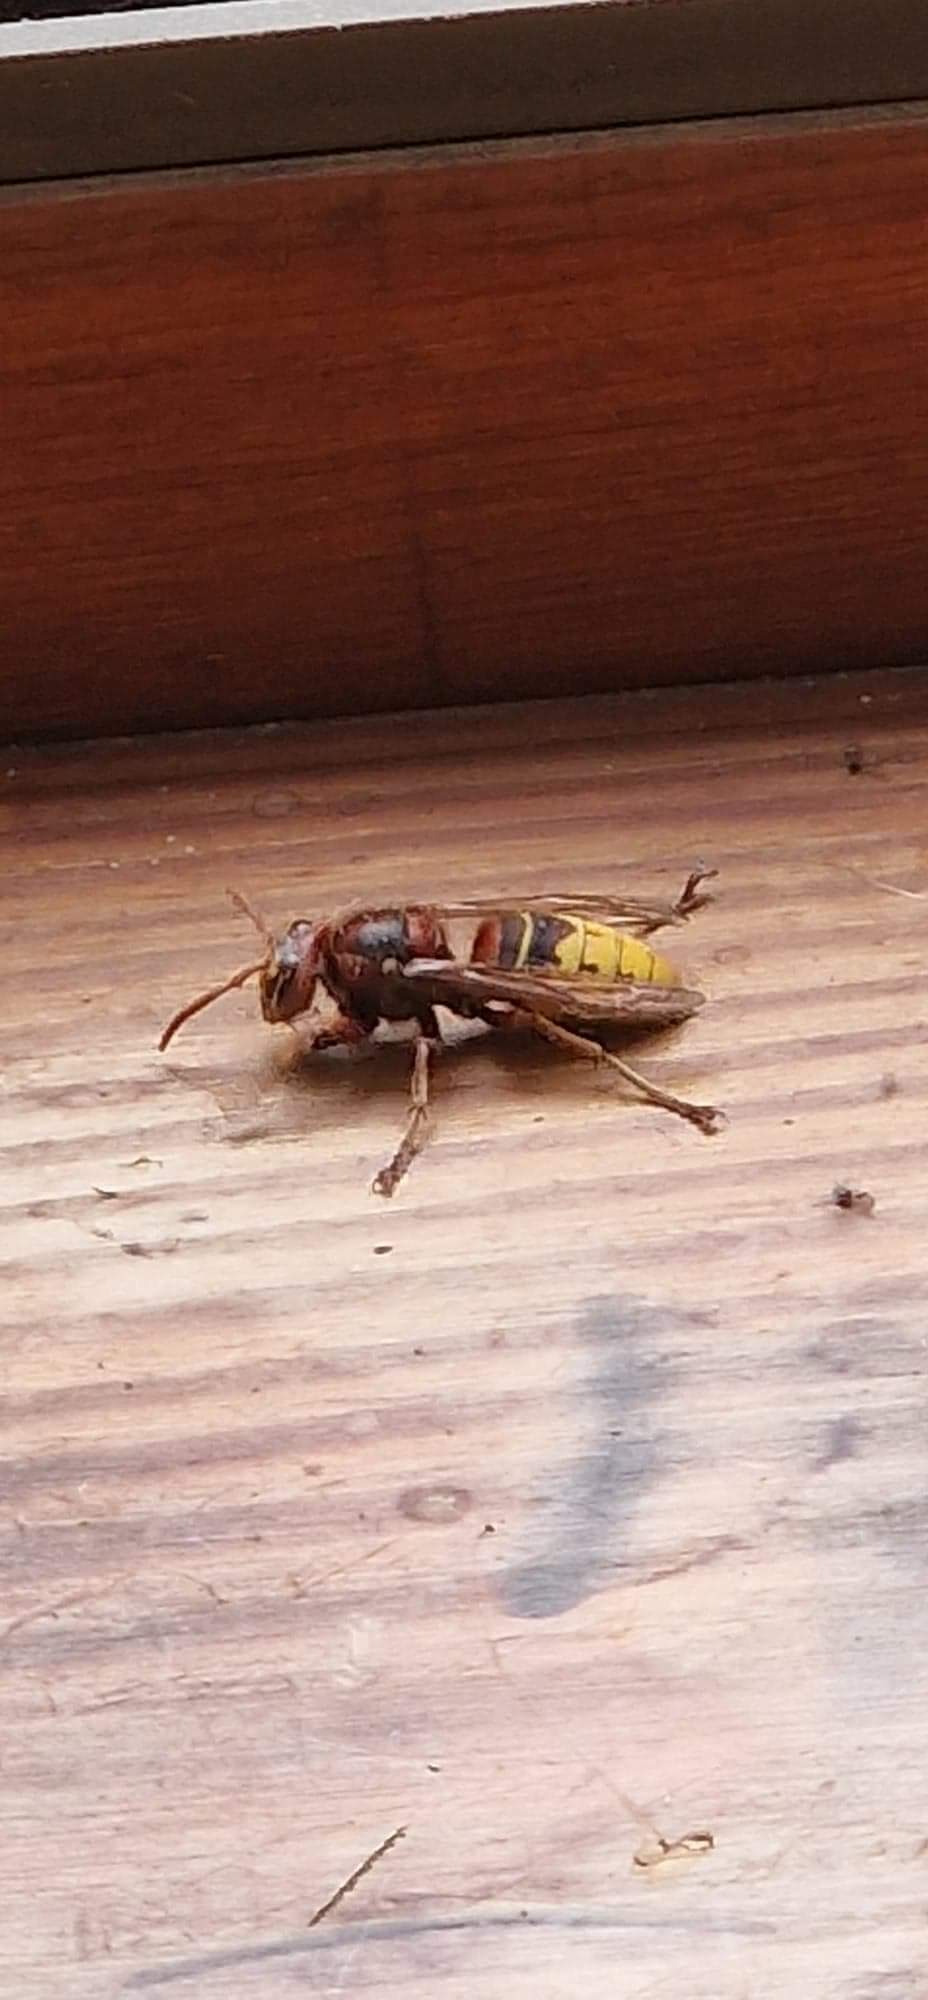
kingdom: Animalia
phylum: Arthropoda
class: Insecta
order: Hymenoptera
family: Vespidae
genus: Vespa
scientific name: Vespa crabro
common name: Hornet
